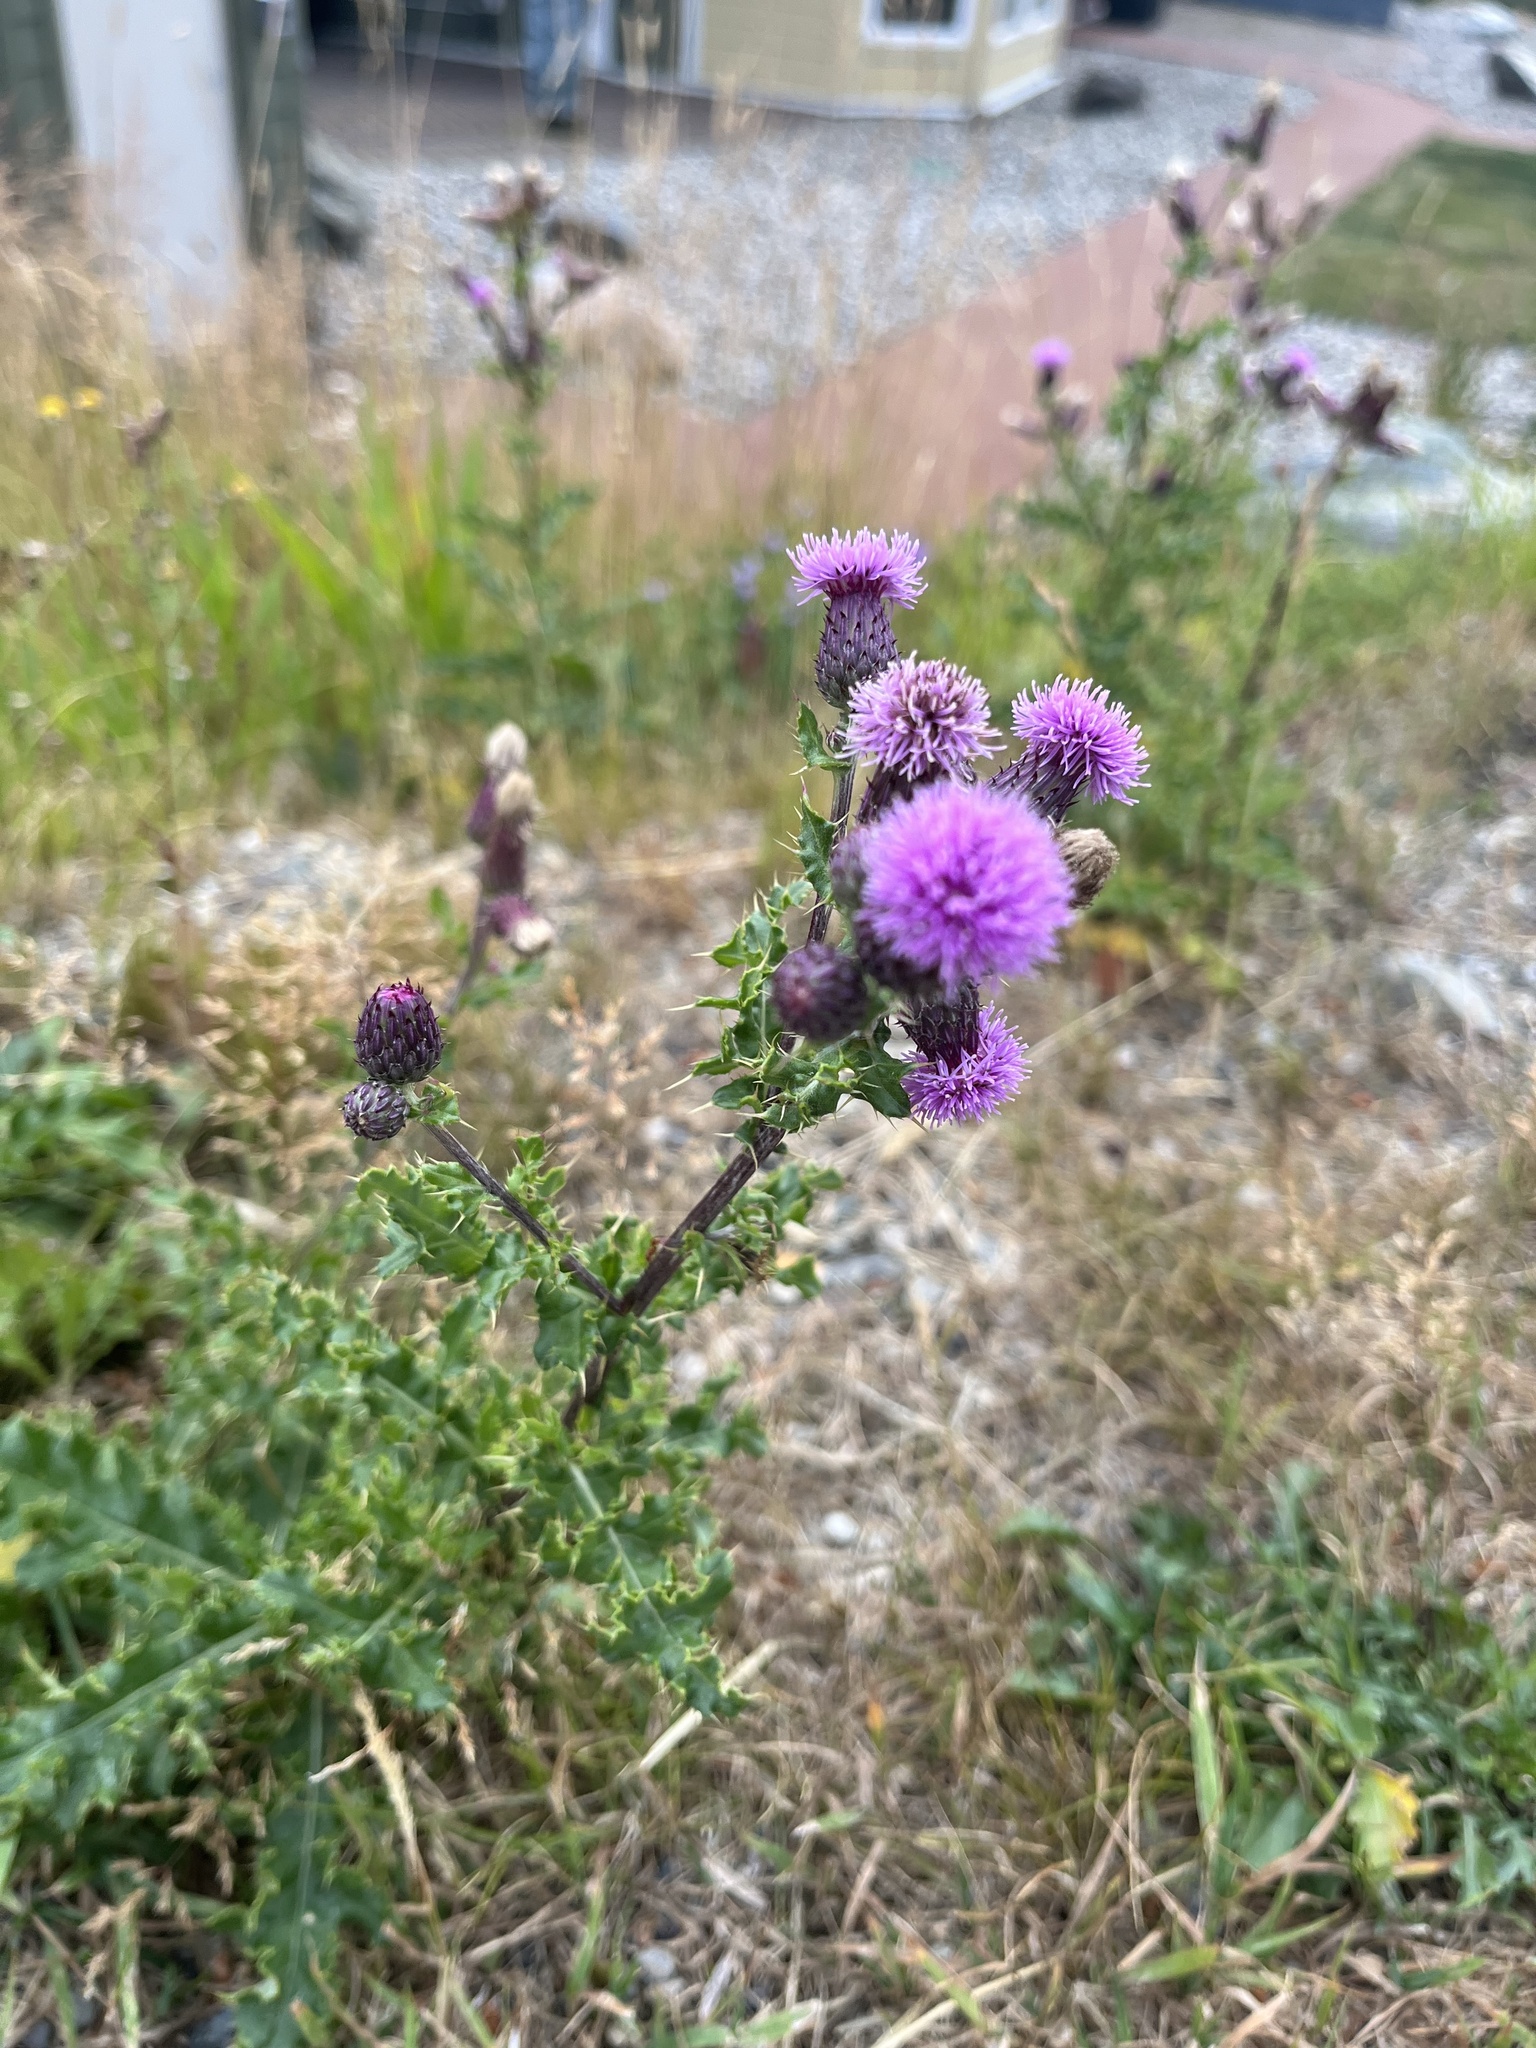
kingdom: Plantae
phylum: Tracheophyta
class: Magnoliopsida
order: Asterales
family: Asteraceae
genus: Cirsium
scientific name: Cirsium arvense
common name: Creeping thistle
